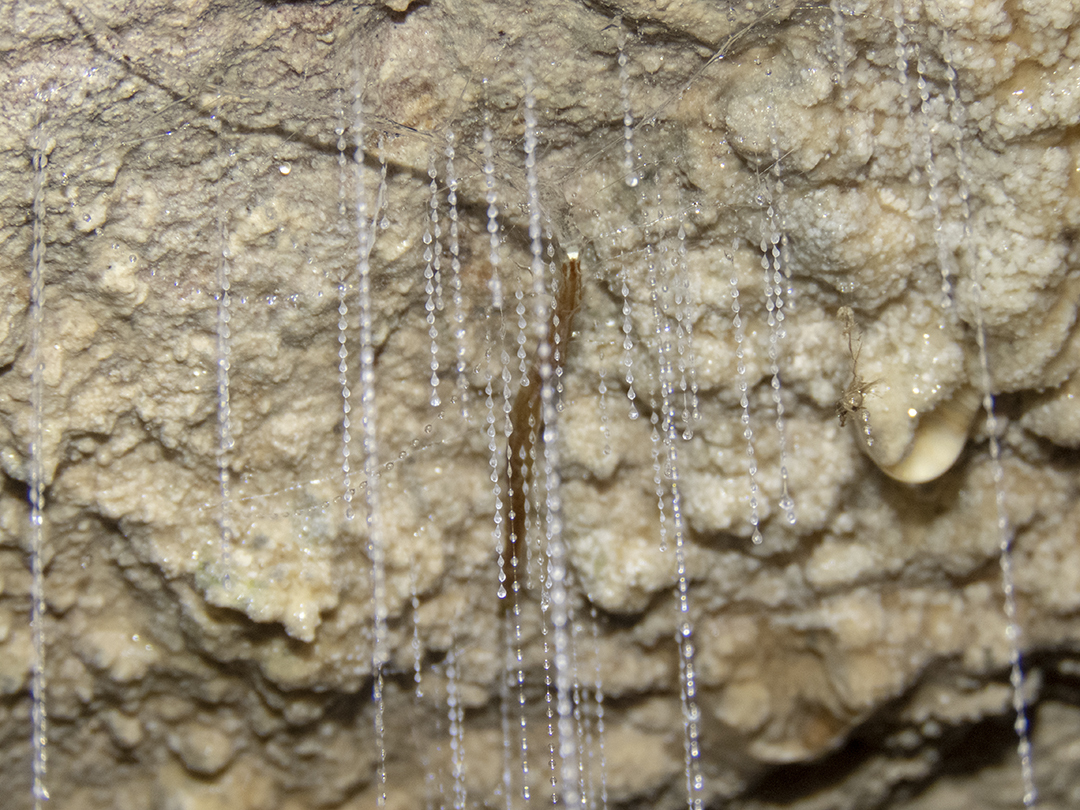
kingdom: Animalia
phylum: Arthropoda
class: Insecta
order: Diptera
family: Keroplatidae
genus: Arachnocampa
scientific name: Arachnocampa luminosa
